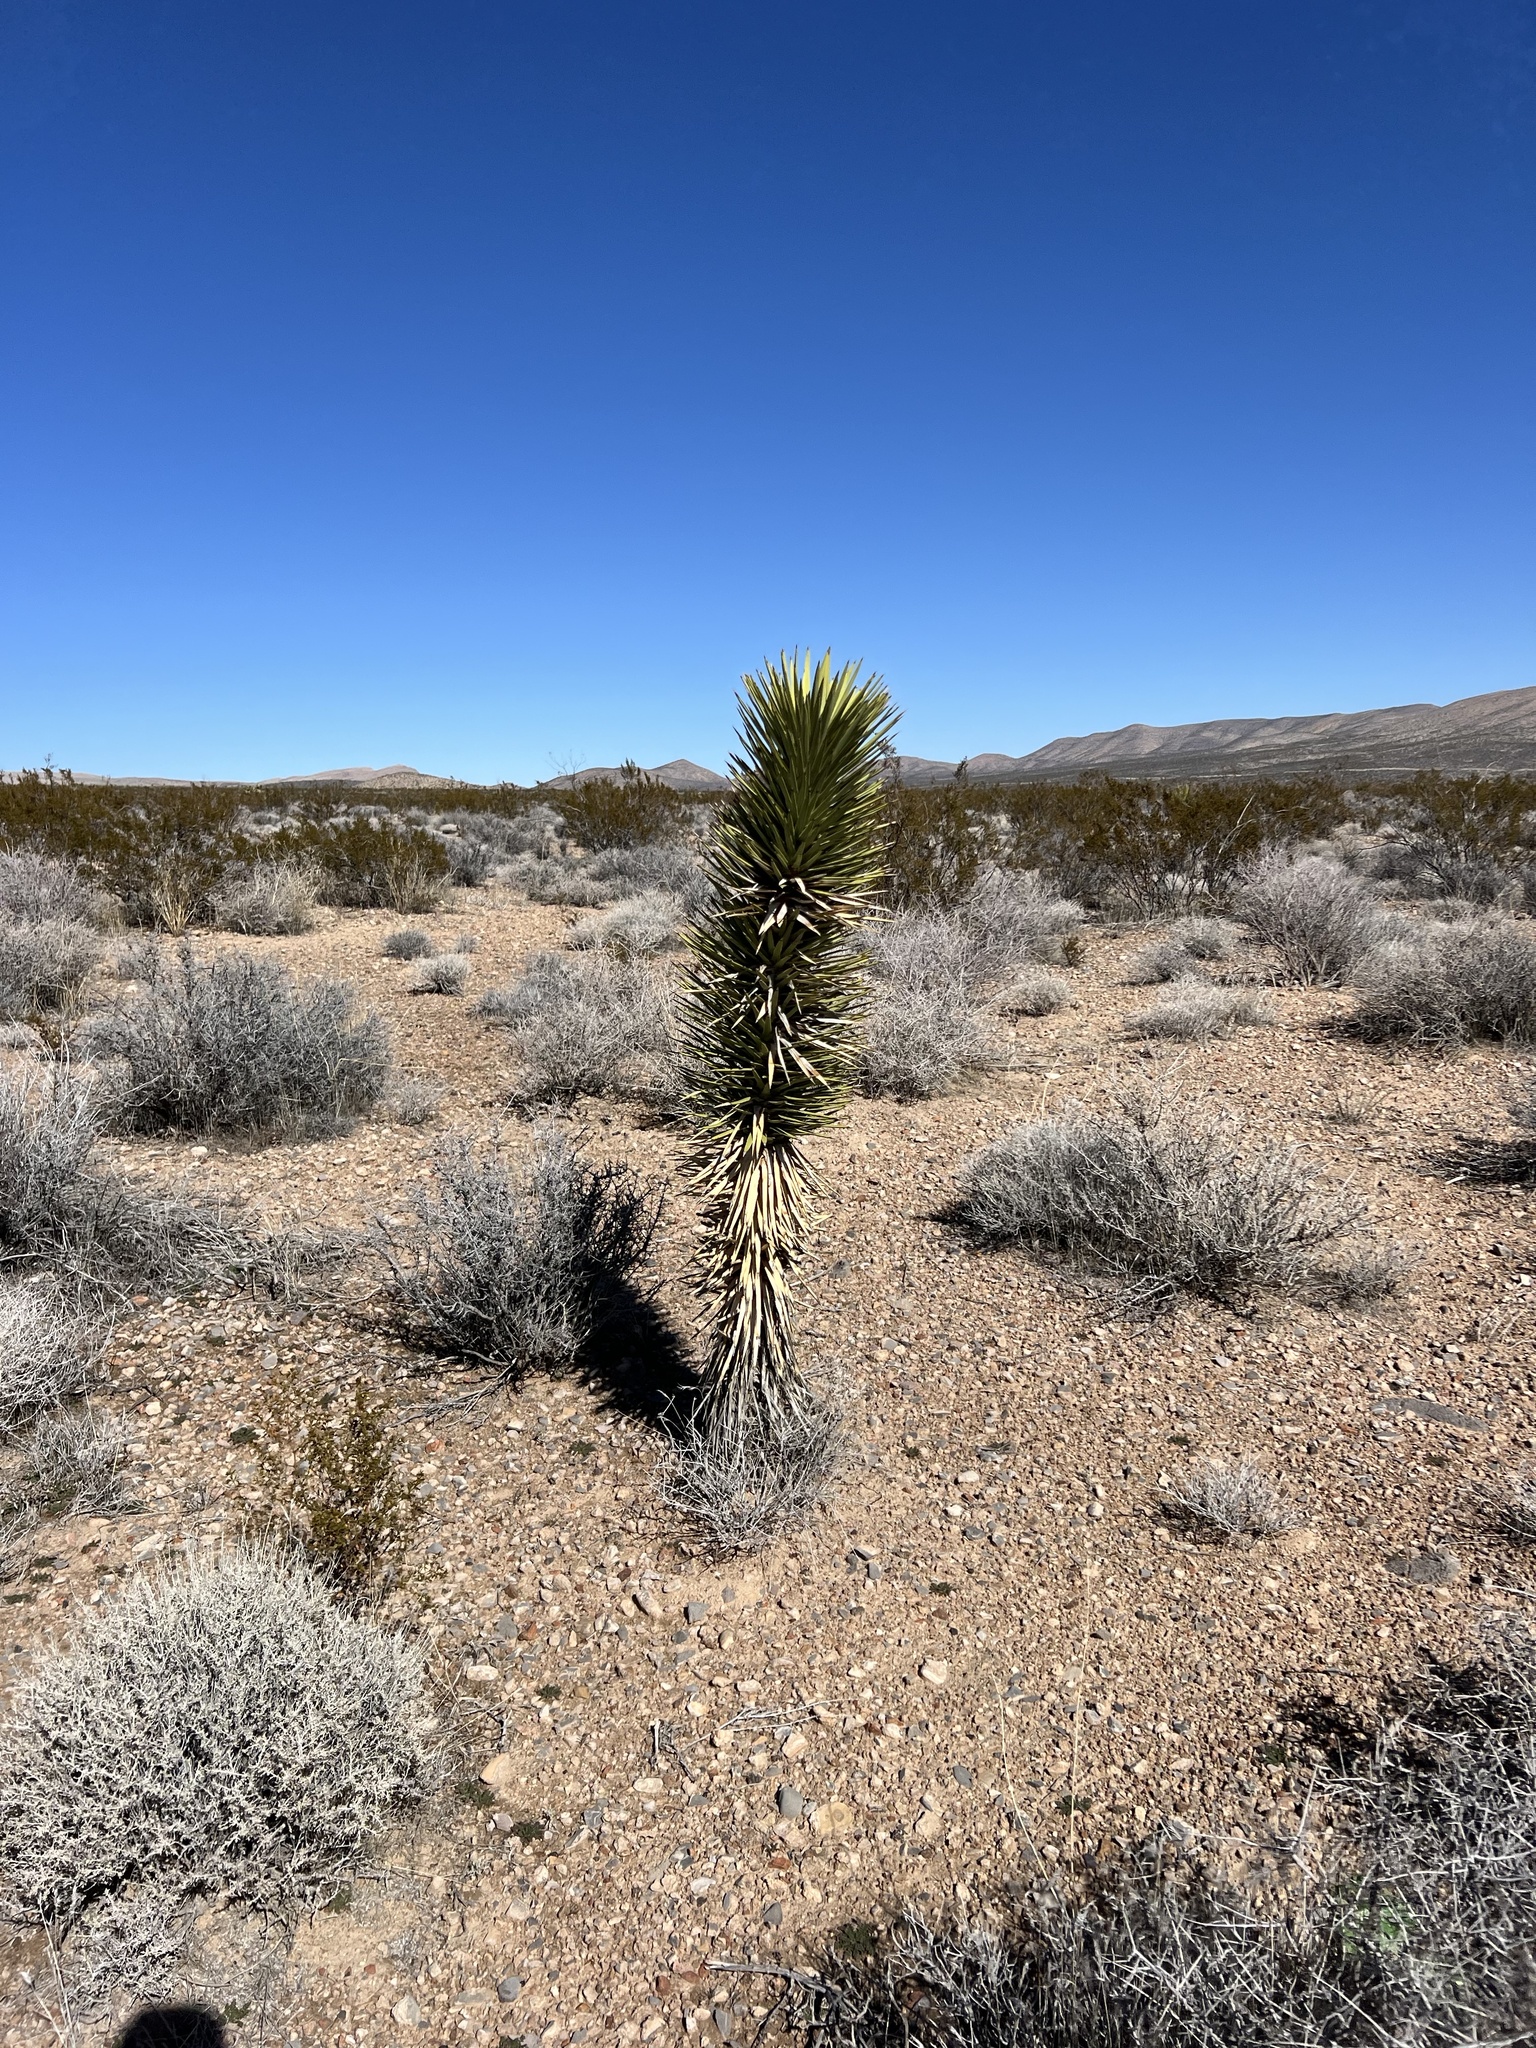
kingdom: Plantae
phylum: Tracheophyta
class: Liliopsida
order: Asparagales
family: Asparagaceae
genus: Yucca
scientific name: Yucca brevifolia
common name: Joshua tree
